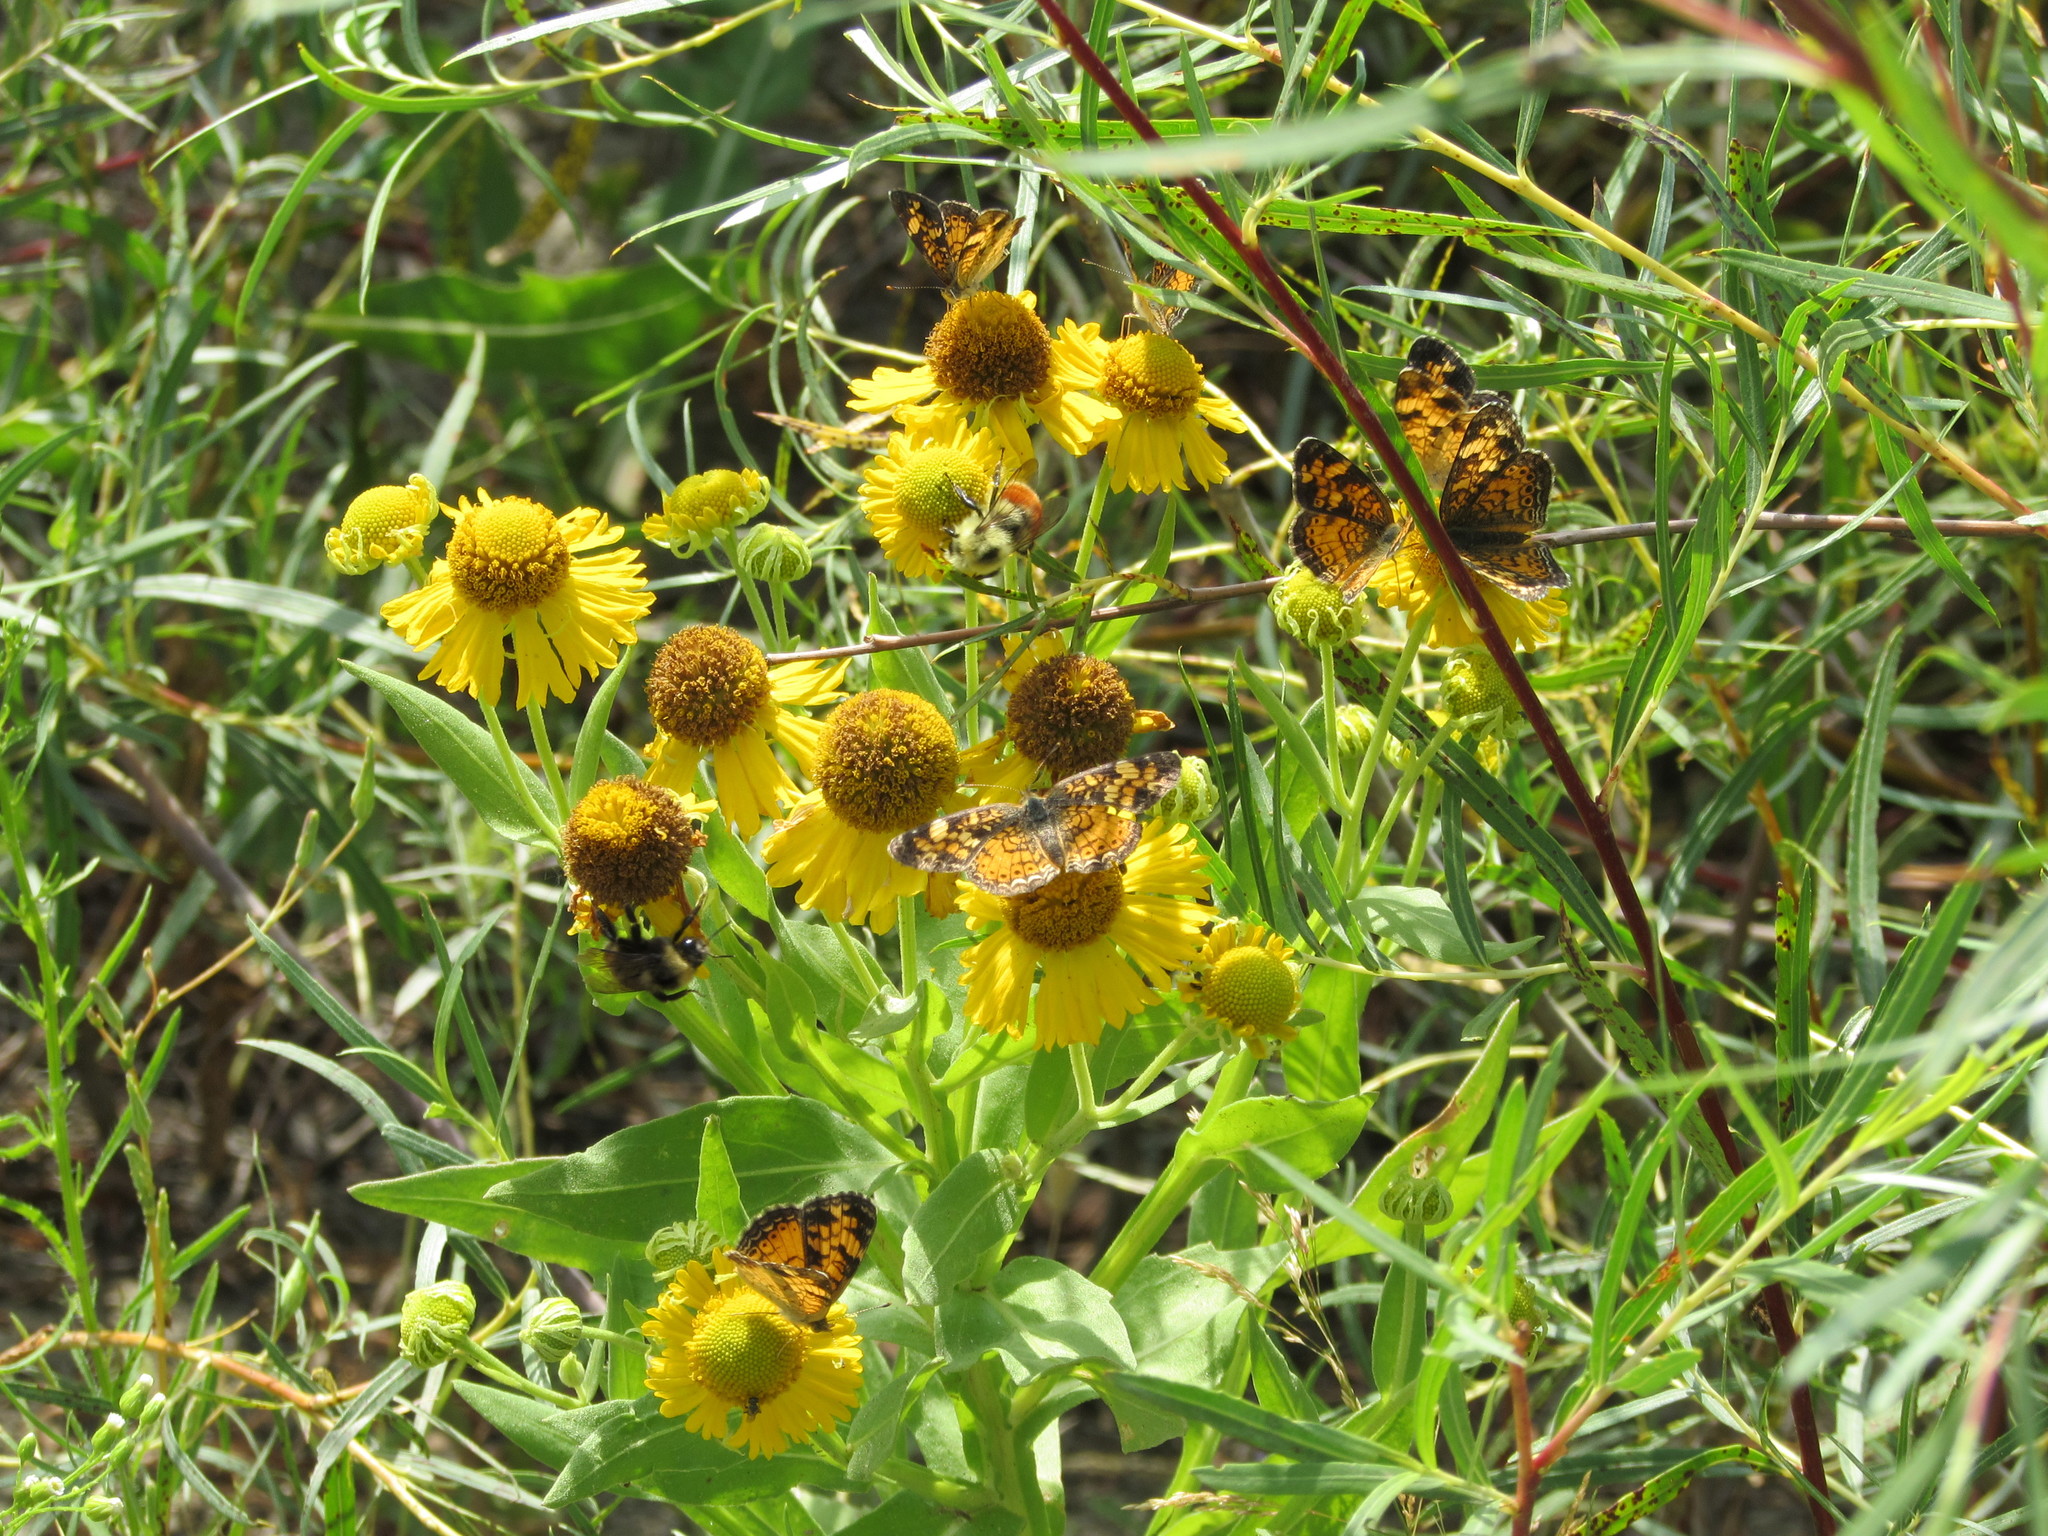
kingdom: Plantae
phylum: Tracheophyta
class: Magnoliopsida
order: Asterales
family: Asteraceae
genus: Helenium
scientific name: Helenium autumnale
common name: Sneezeweed
